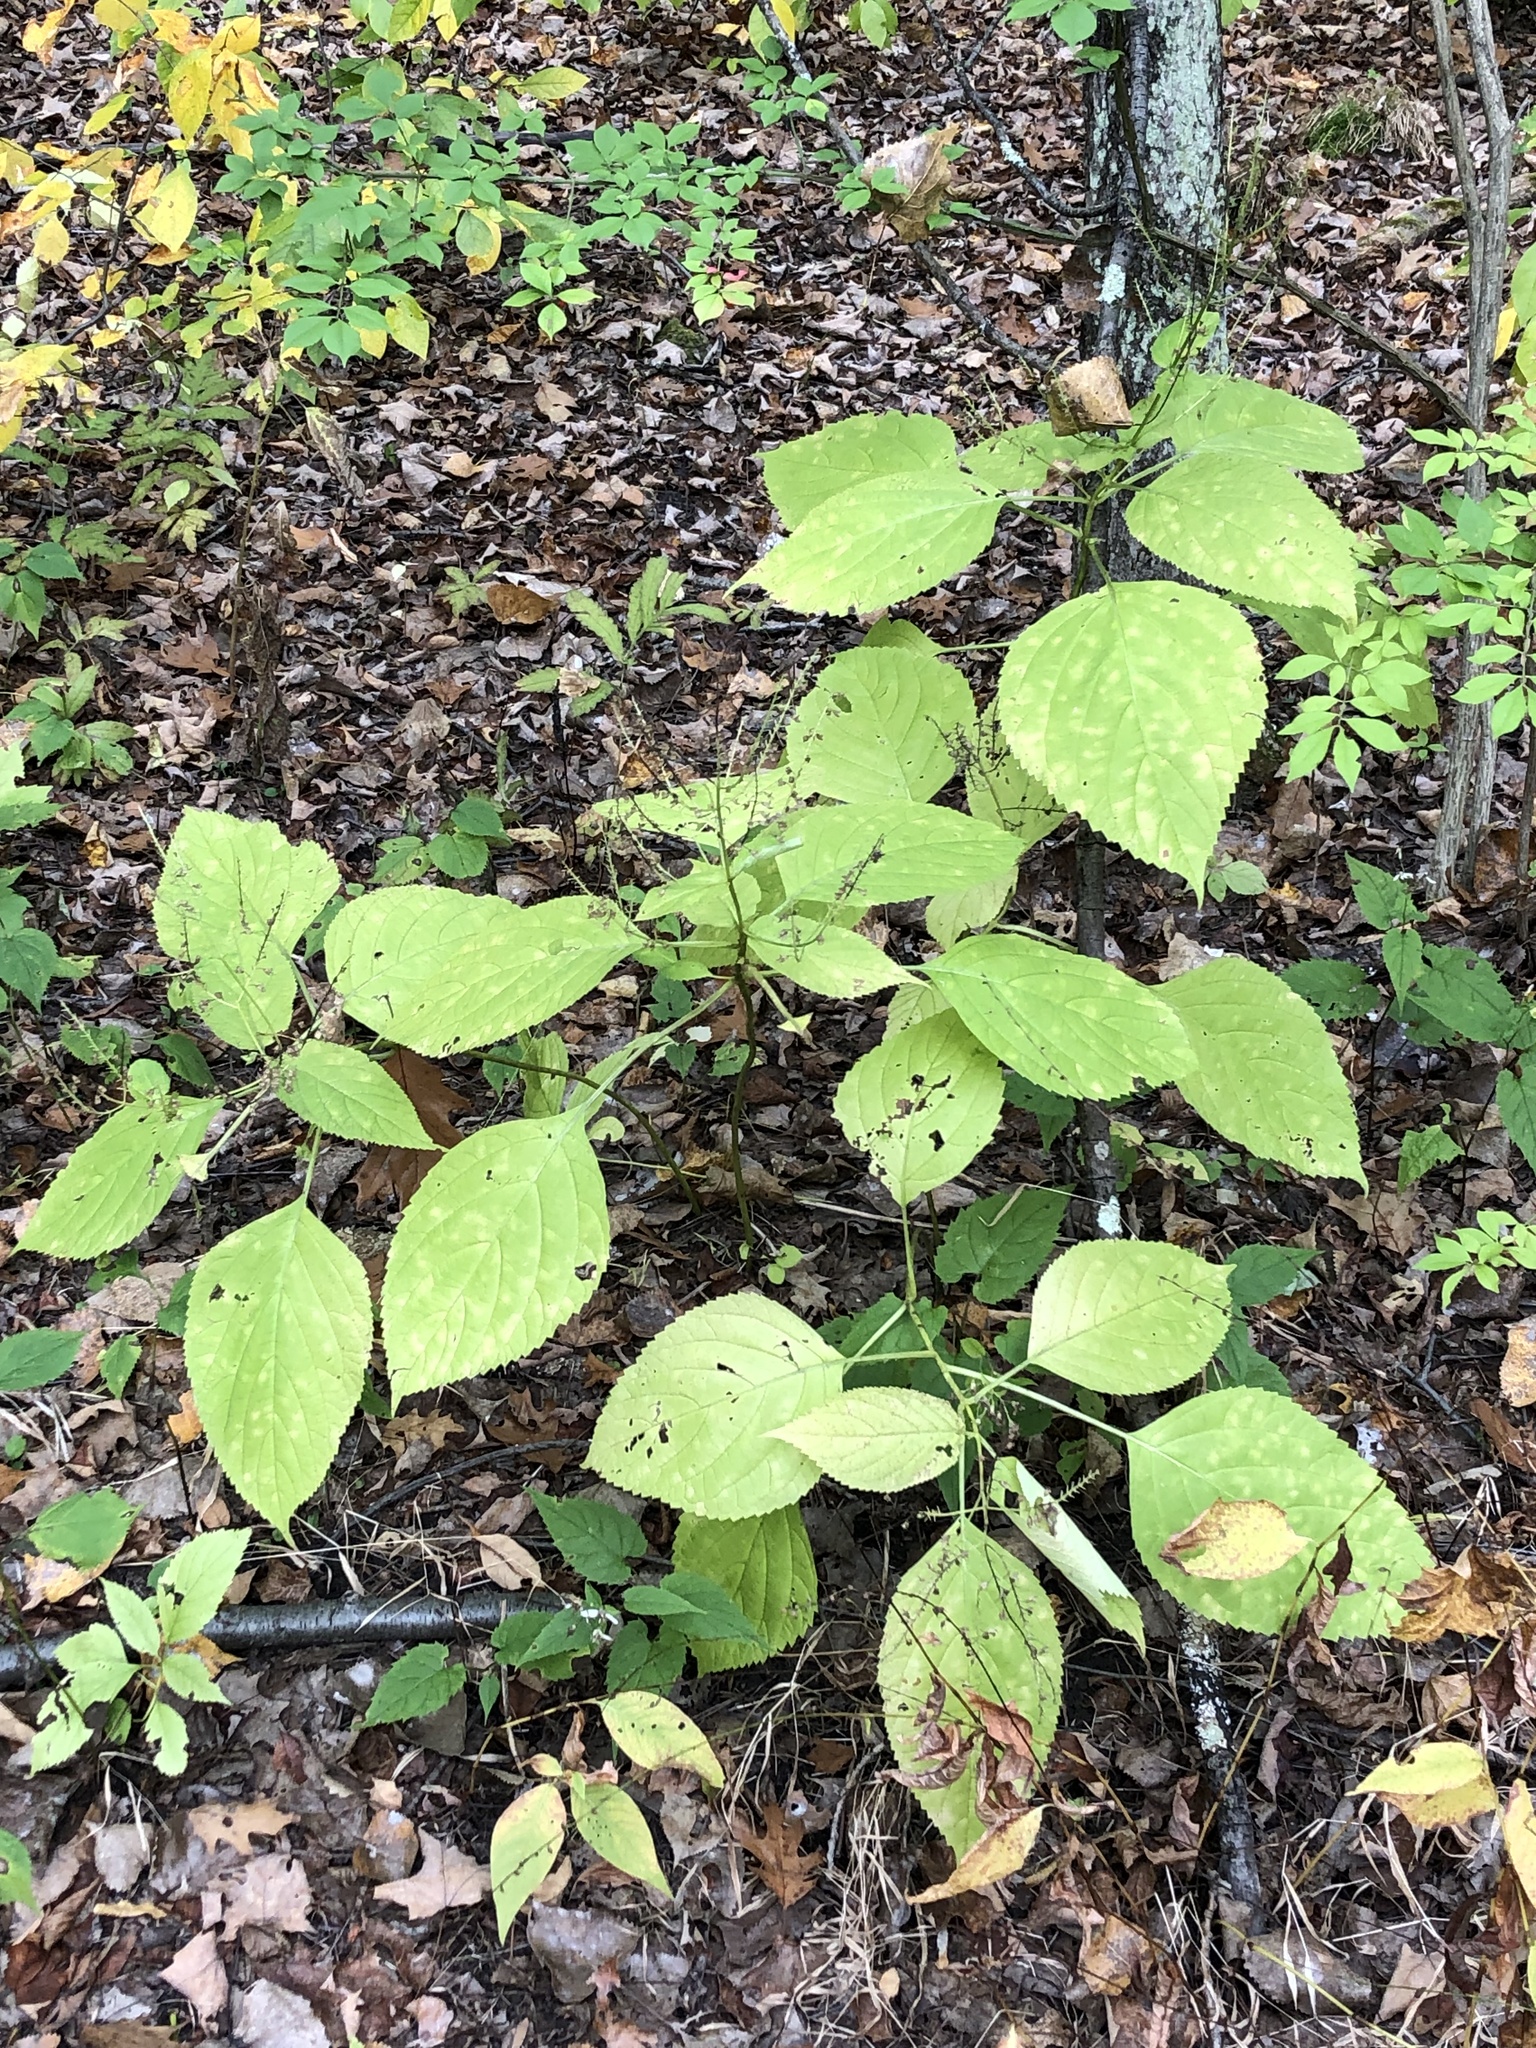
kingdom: Plantae
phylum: Tracheophyta
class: Magnoliopsida
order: Lamiales
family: Lamiaceae
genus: Collinsonia
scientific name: Collinsonia canadensis
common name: Northern horsebalm
